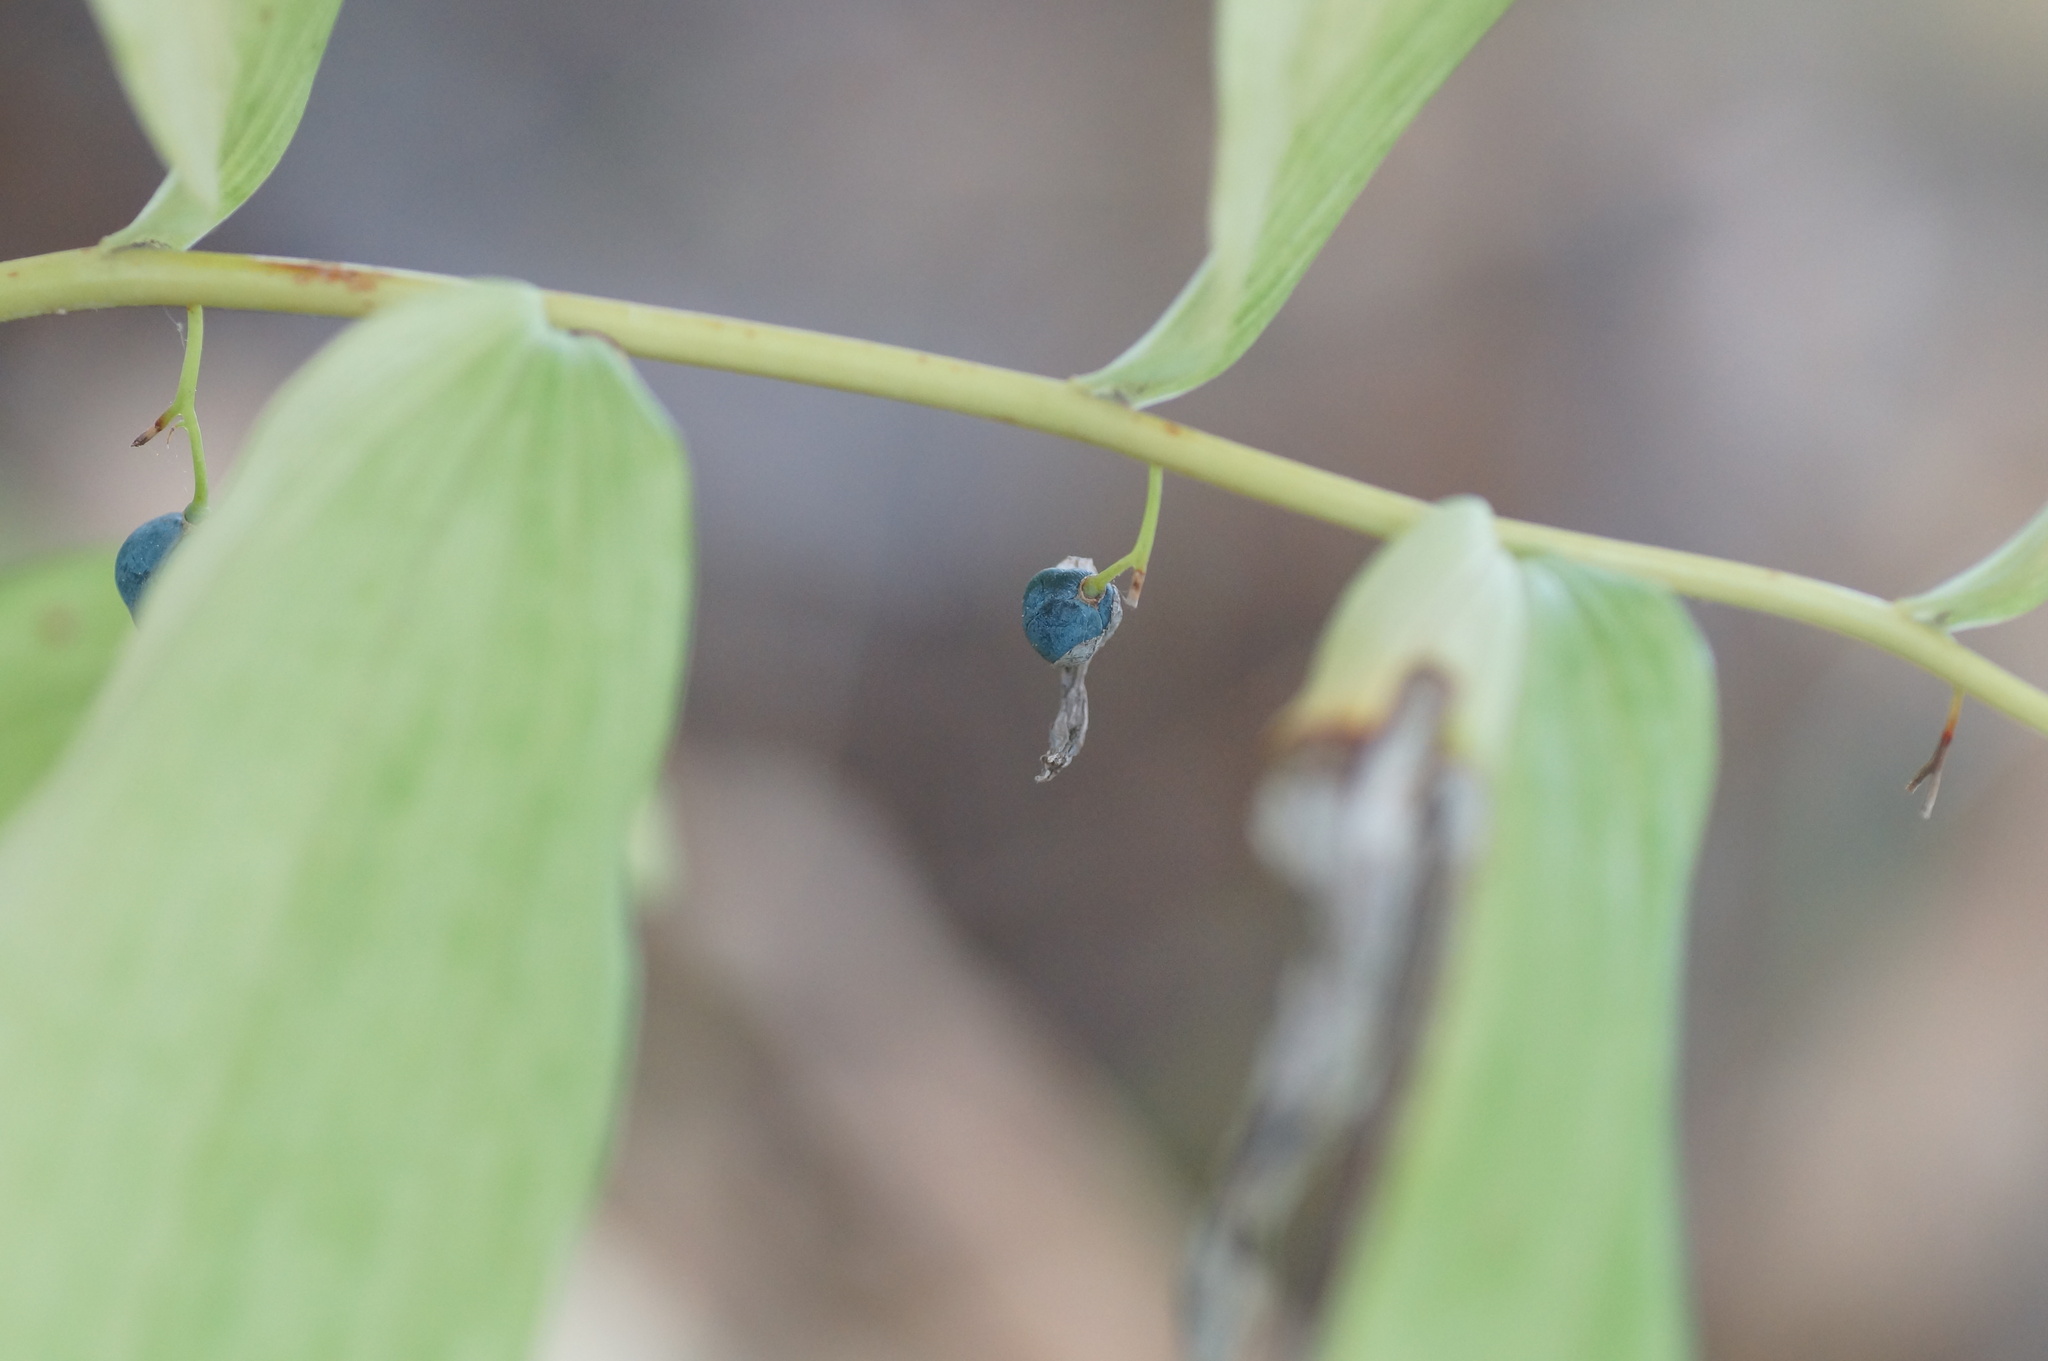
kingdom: Plantae
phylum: Tracheophyta
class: Liliopsida
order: Asparagales
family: Asparagaceae
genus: Polygonatum
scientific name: Polygonatum odoratum
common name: Angular solomon's-seal
